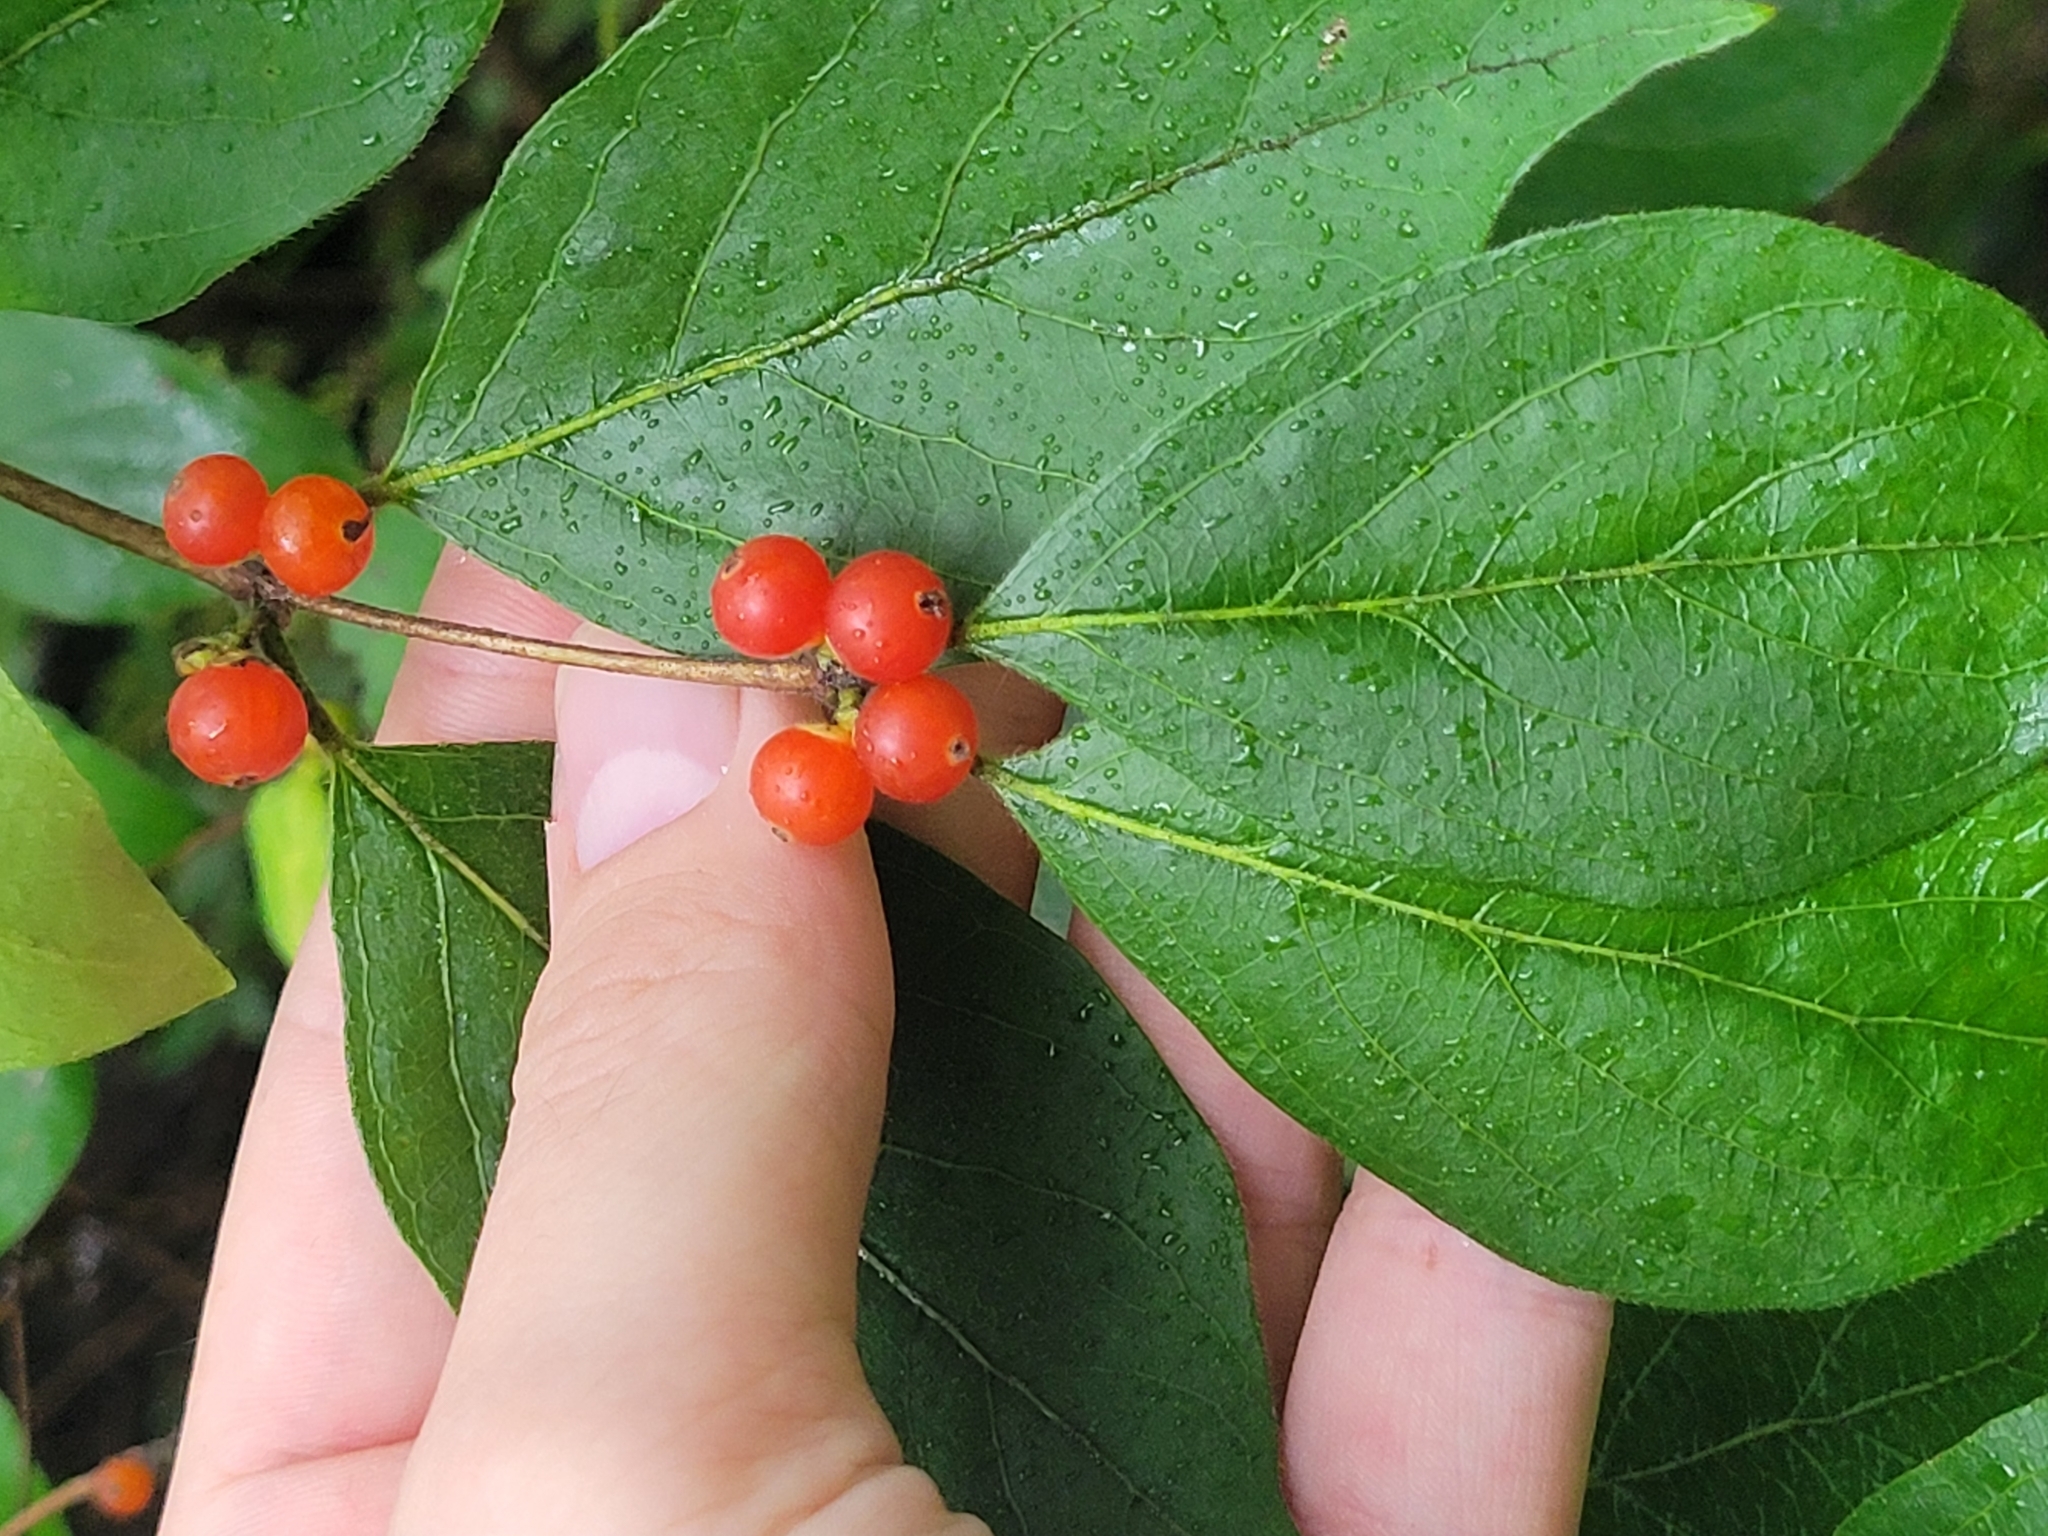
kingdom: Plantae
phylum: Tracheophyta
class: Magnoliopsida
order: Dipsacales
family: Caprifoliaceae
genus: Lonicera
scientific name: Lonicera maackii
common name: Amur honeysuckle
